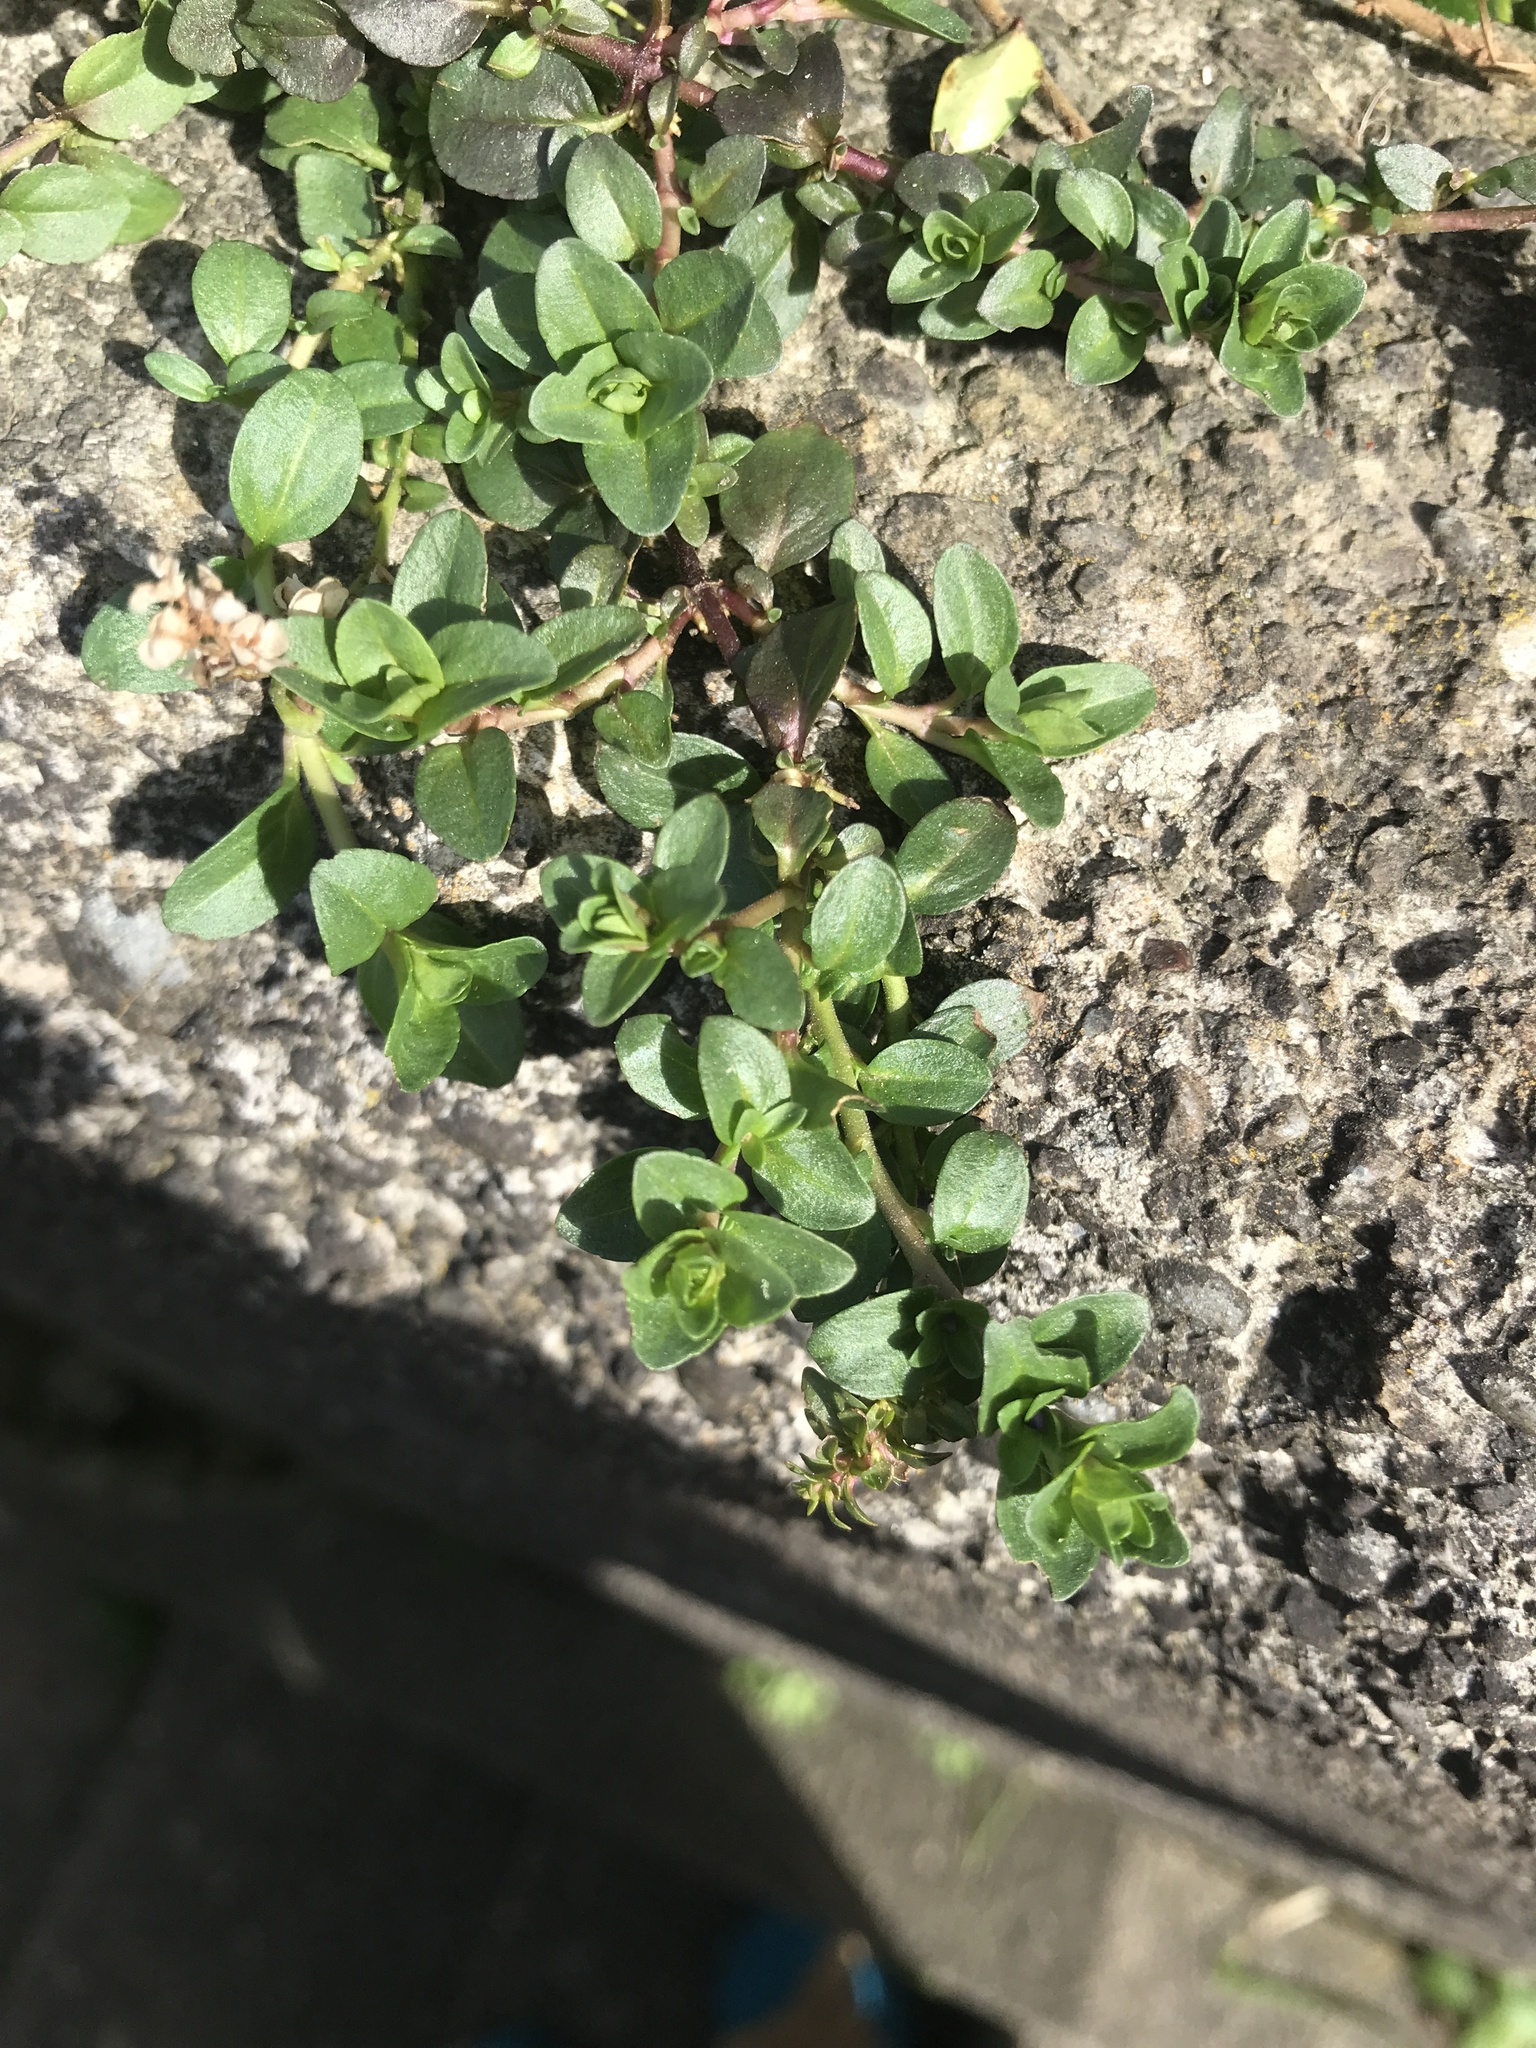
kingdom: Plantae
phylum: Tracheophyta
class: Magnoliopsida
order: Lamiales
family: Plantaginaceae
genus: Veronica
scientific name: Veronica serpyllifolia
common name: Thyme-leaved speedwell
